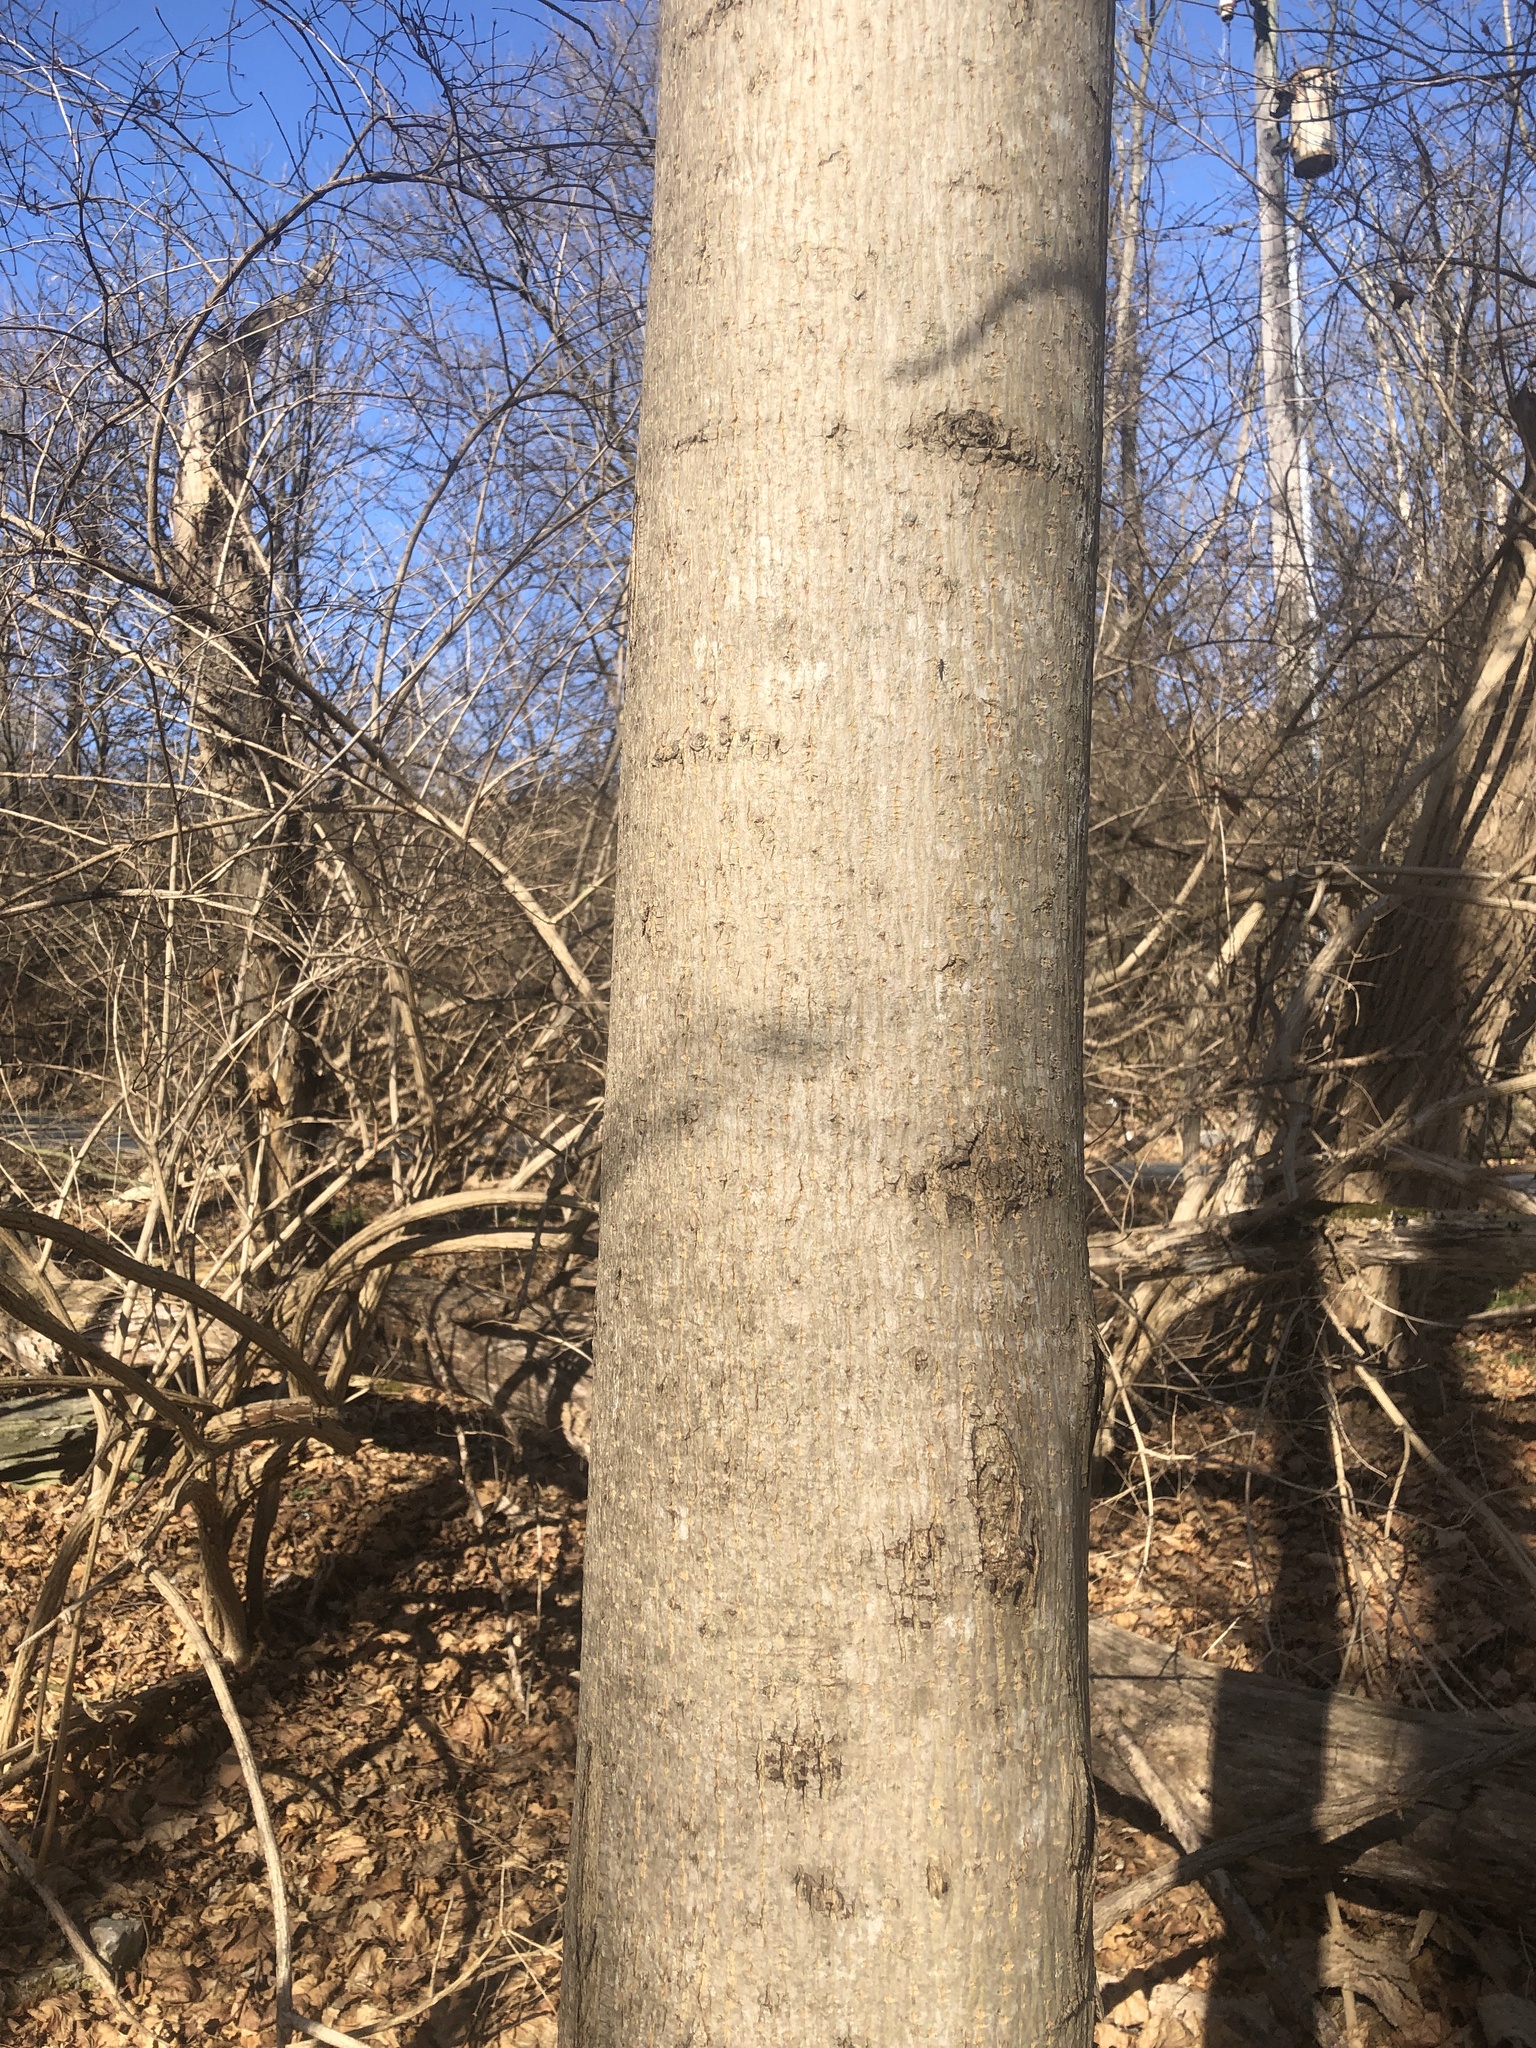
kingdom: Plantae
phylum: Tracheophyta
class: Magnoliopsida
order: Sapindales
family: Sapindaceae
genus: Acer
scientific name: Acer platanoides
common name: Norway maple
